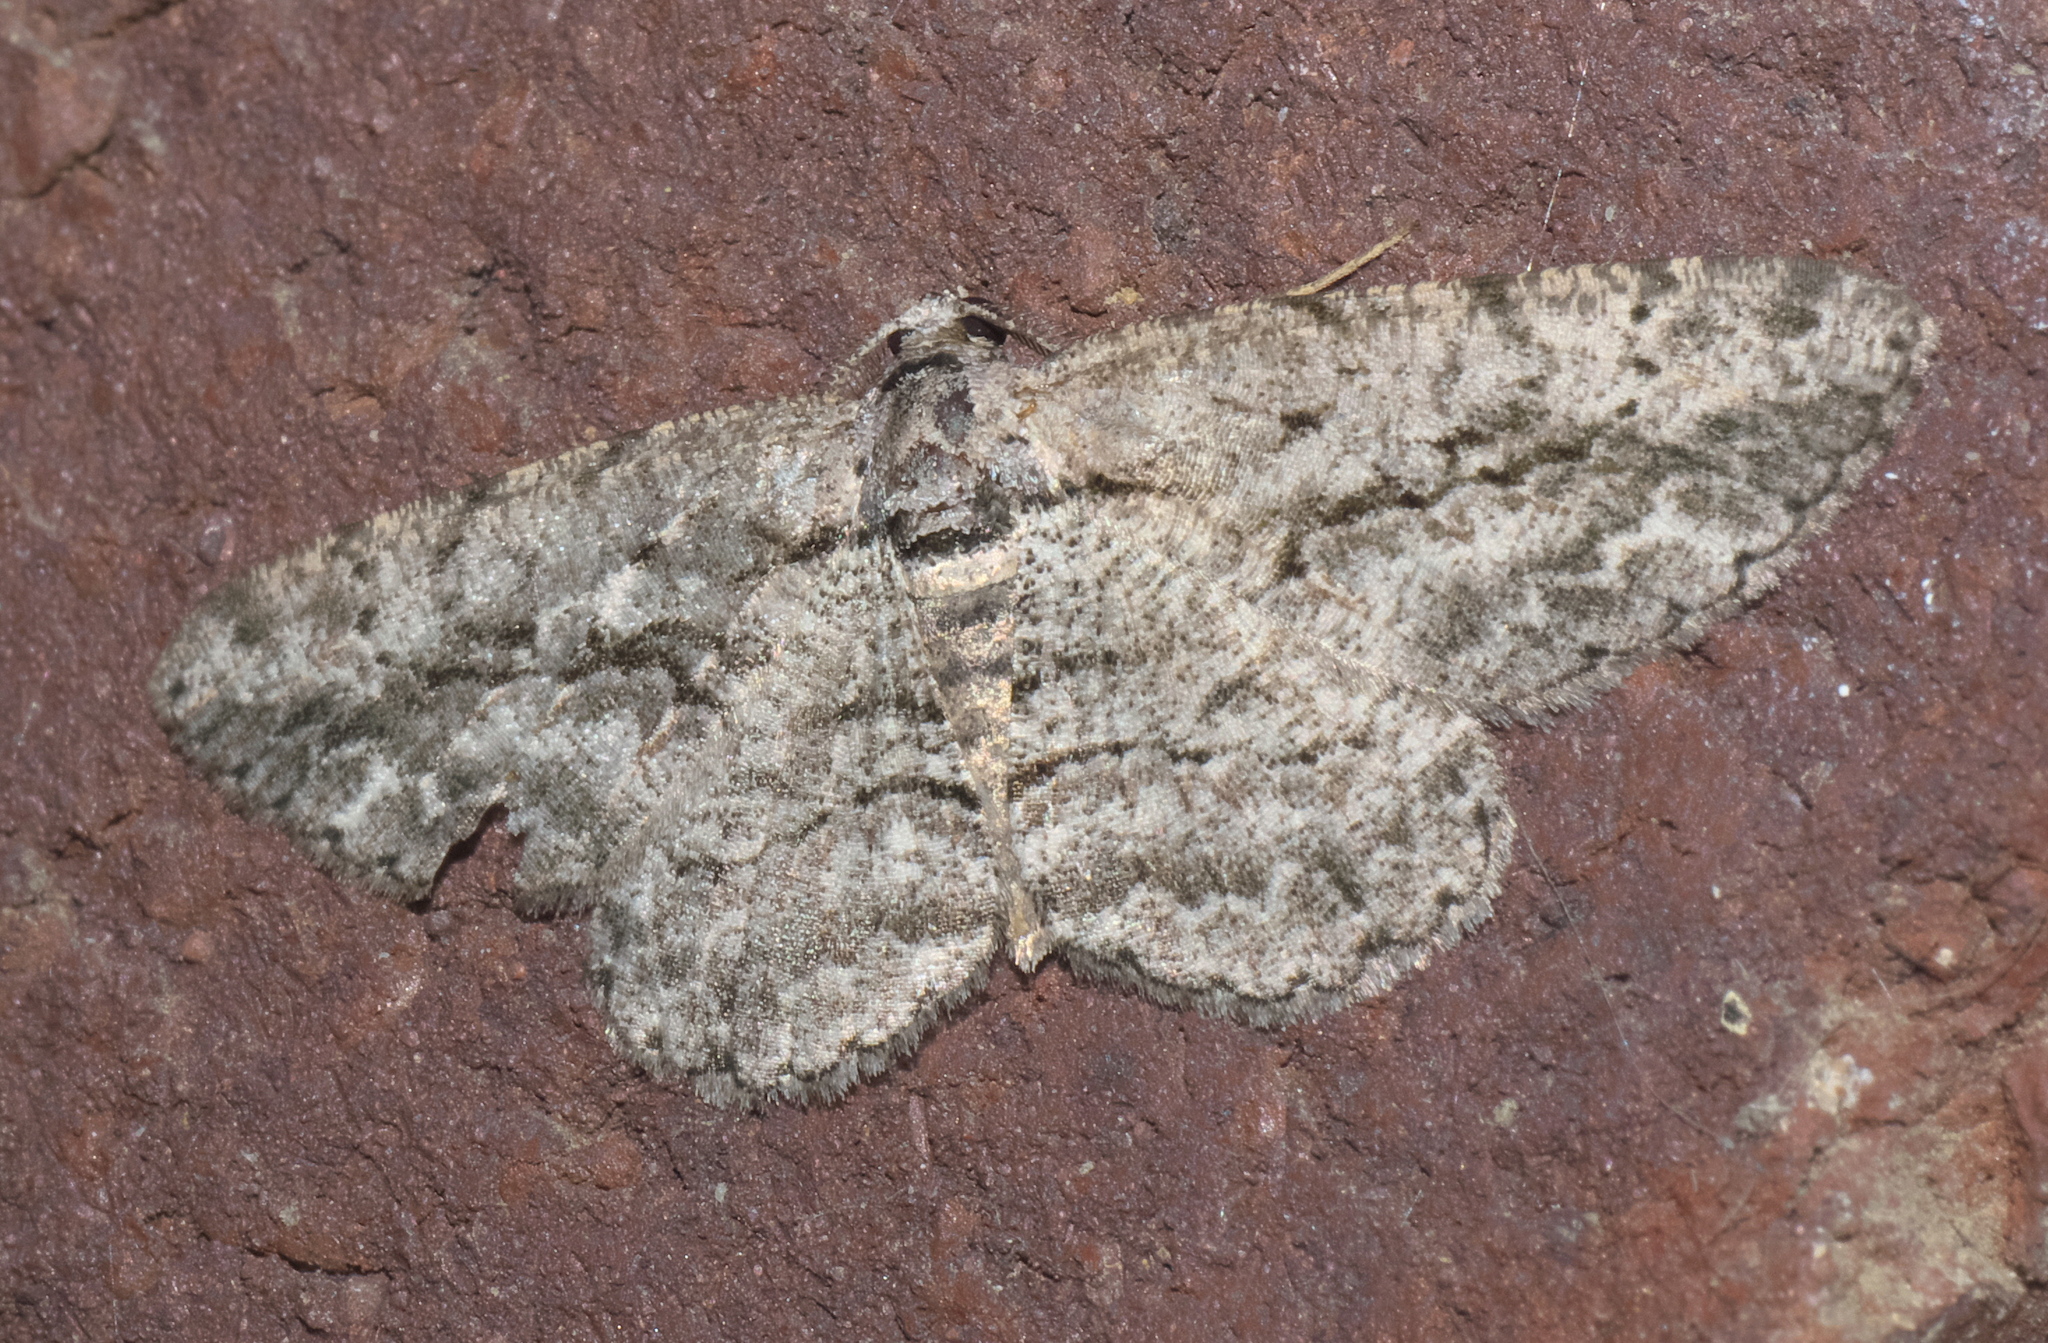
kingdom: Animalia
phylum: Arthropoda
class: Insecta
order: Lepidoptera
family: Geometridae
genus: Anavitrinella
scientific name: Anavitrinella pampinaria
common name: Common gray
